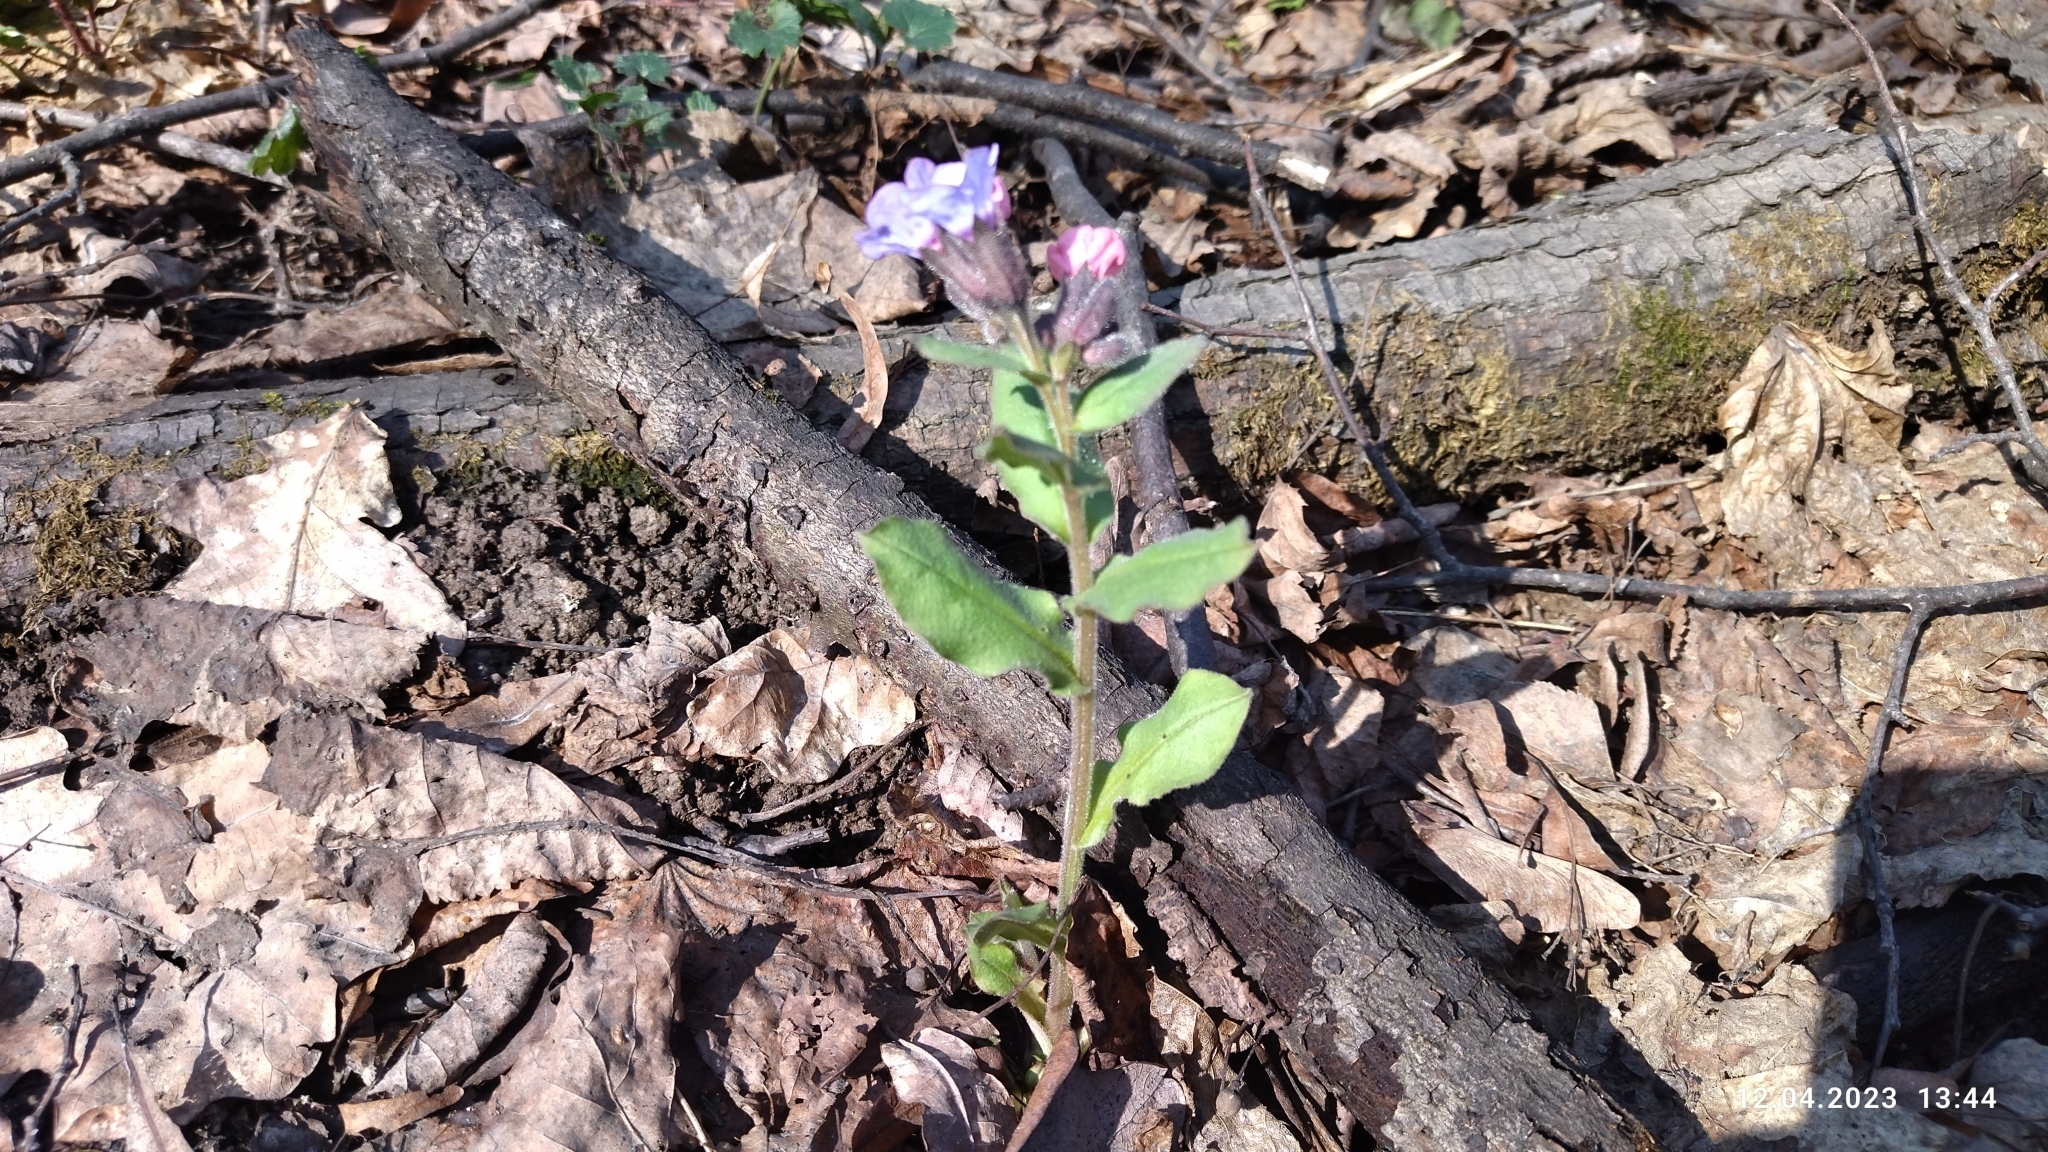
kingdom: Plantae
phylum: Tracheophyta
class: Magnoliopsida
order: Boraginales
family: Boraginaceae
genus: Pulmonaria
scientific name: Pulmonaria obscura
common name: Suffolk lungwort
